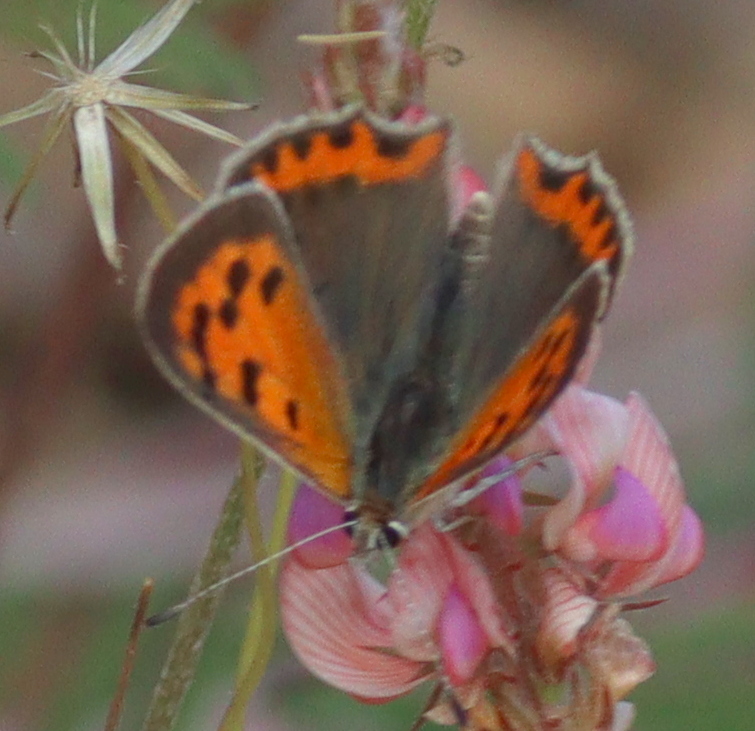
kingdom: Animalia
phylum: Arthropoda
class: Insecta
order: Lepidoptera
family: Lycaenidae
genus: Lycaena
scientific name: Lycaena phlaeas
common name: Small copper
